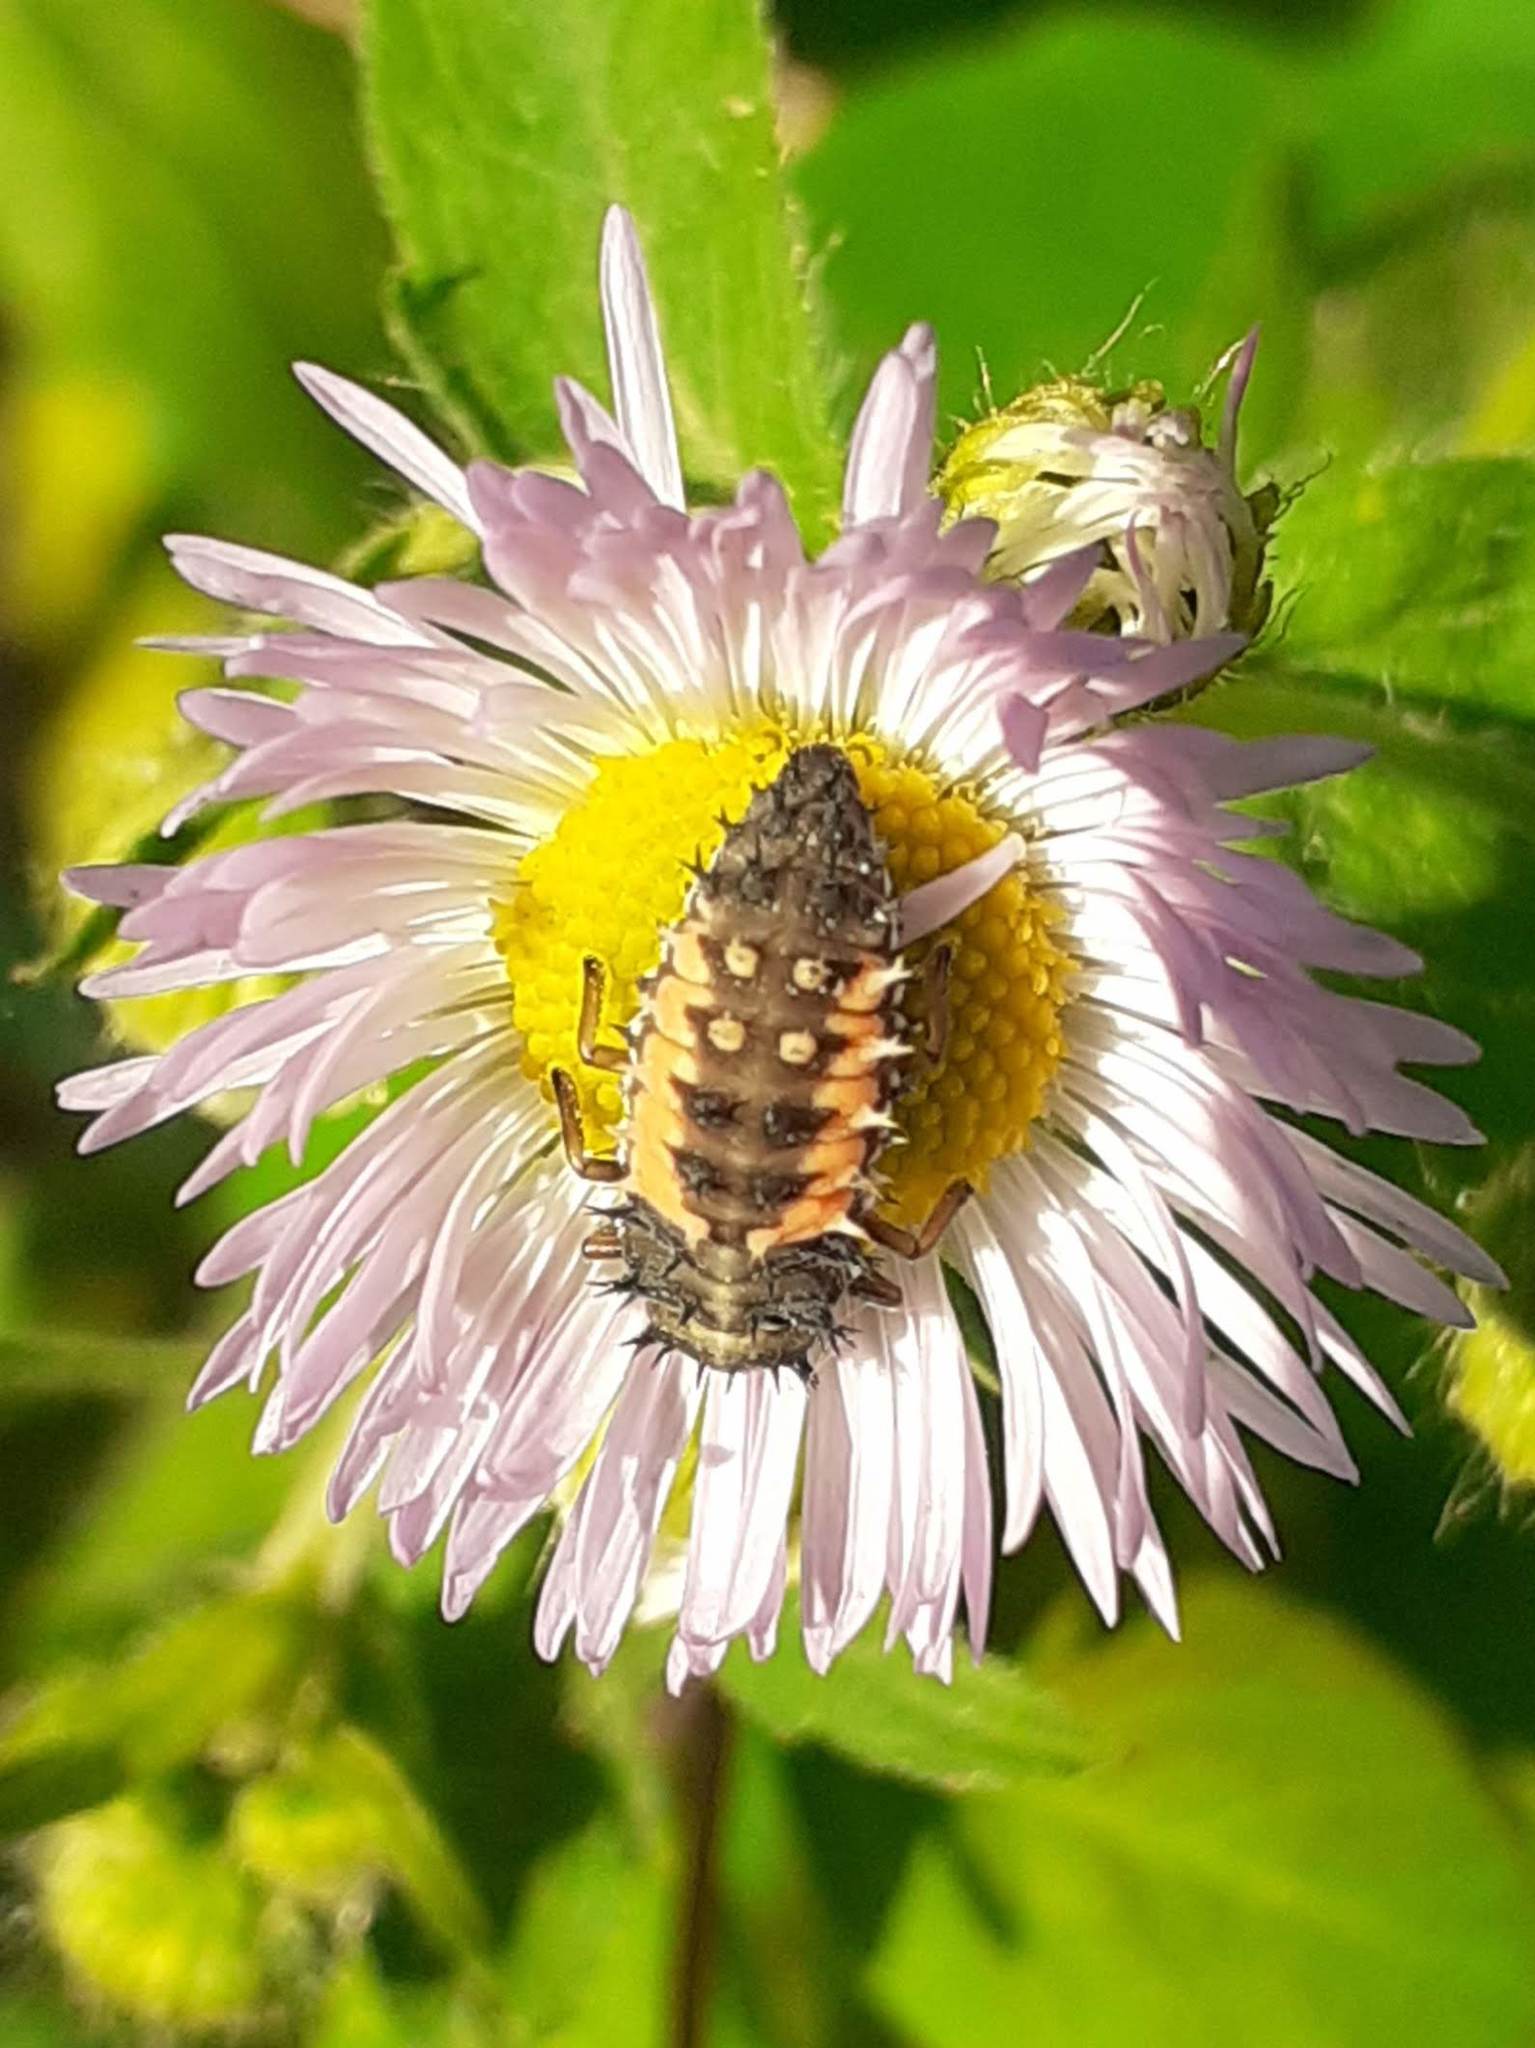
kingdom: Animalia
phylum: Arthropoda
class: Insecta
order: Coleoptera
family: Coccinellidae
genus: Harmonia
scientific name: Harmonia axyridis
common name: Harlequin ladybird
